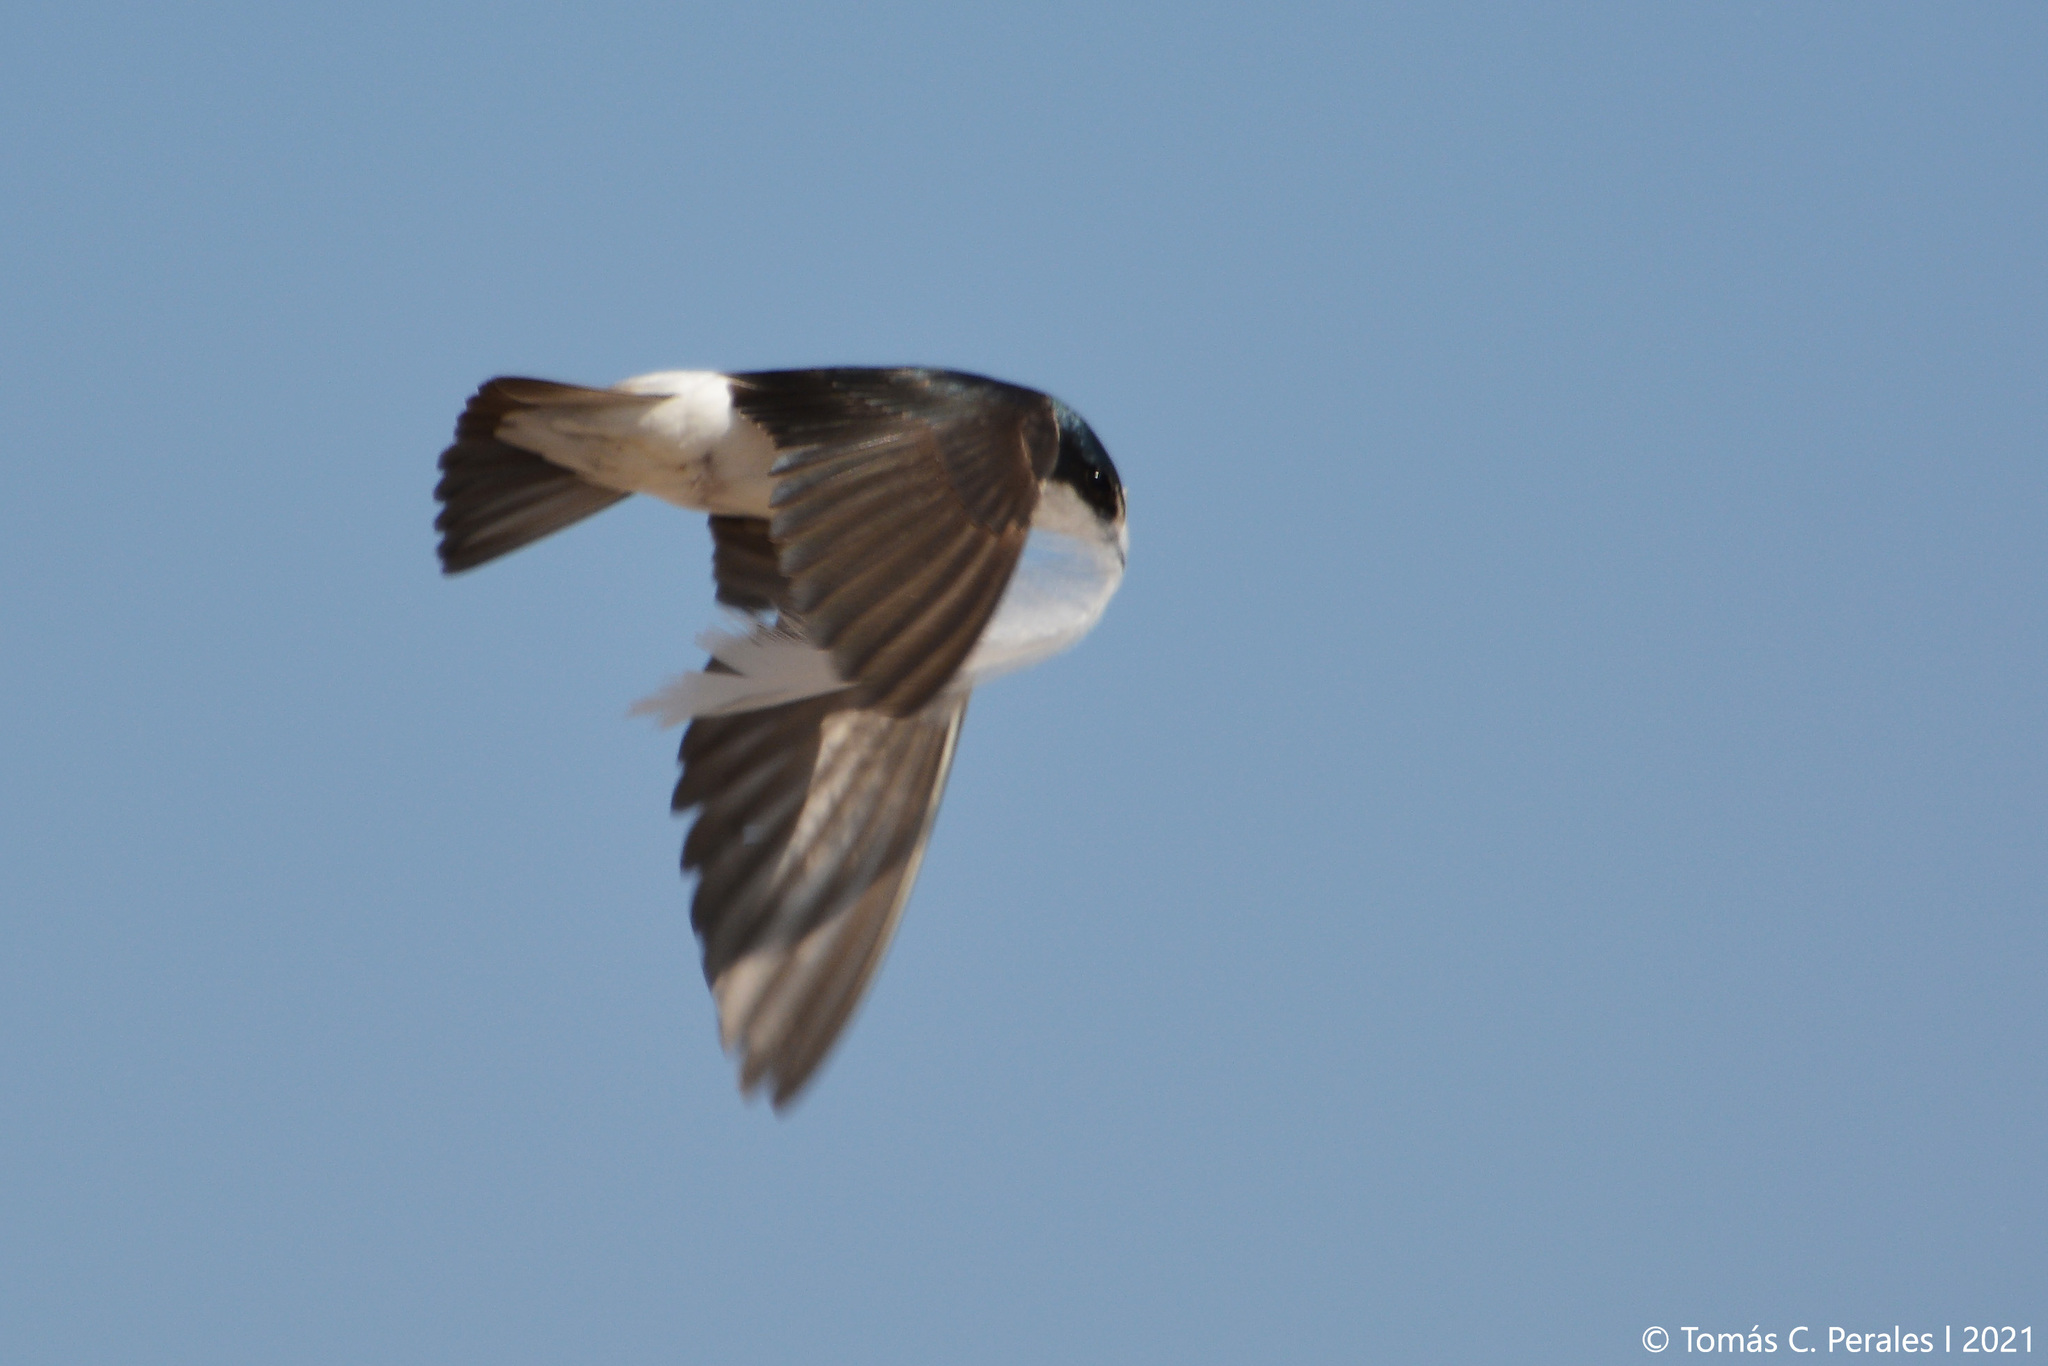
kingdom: Animalia
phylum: Chordata
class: Aves
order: Passeriformes
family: Hirundinidae
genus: Tachycineta
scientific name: Tachycineta leucorrhoa
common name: White-rumped swallow
